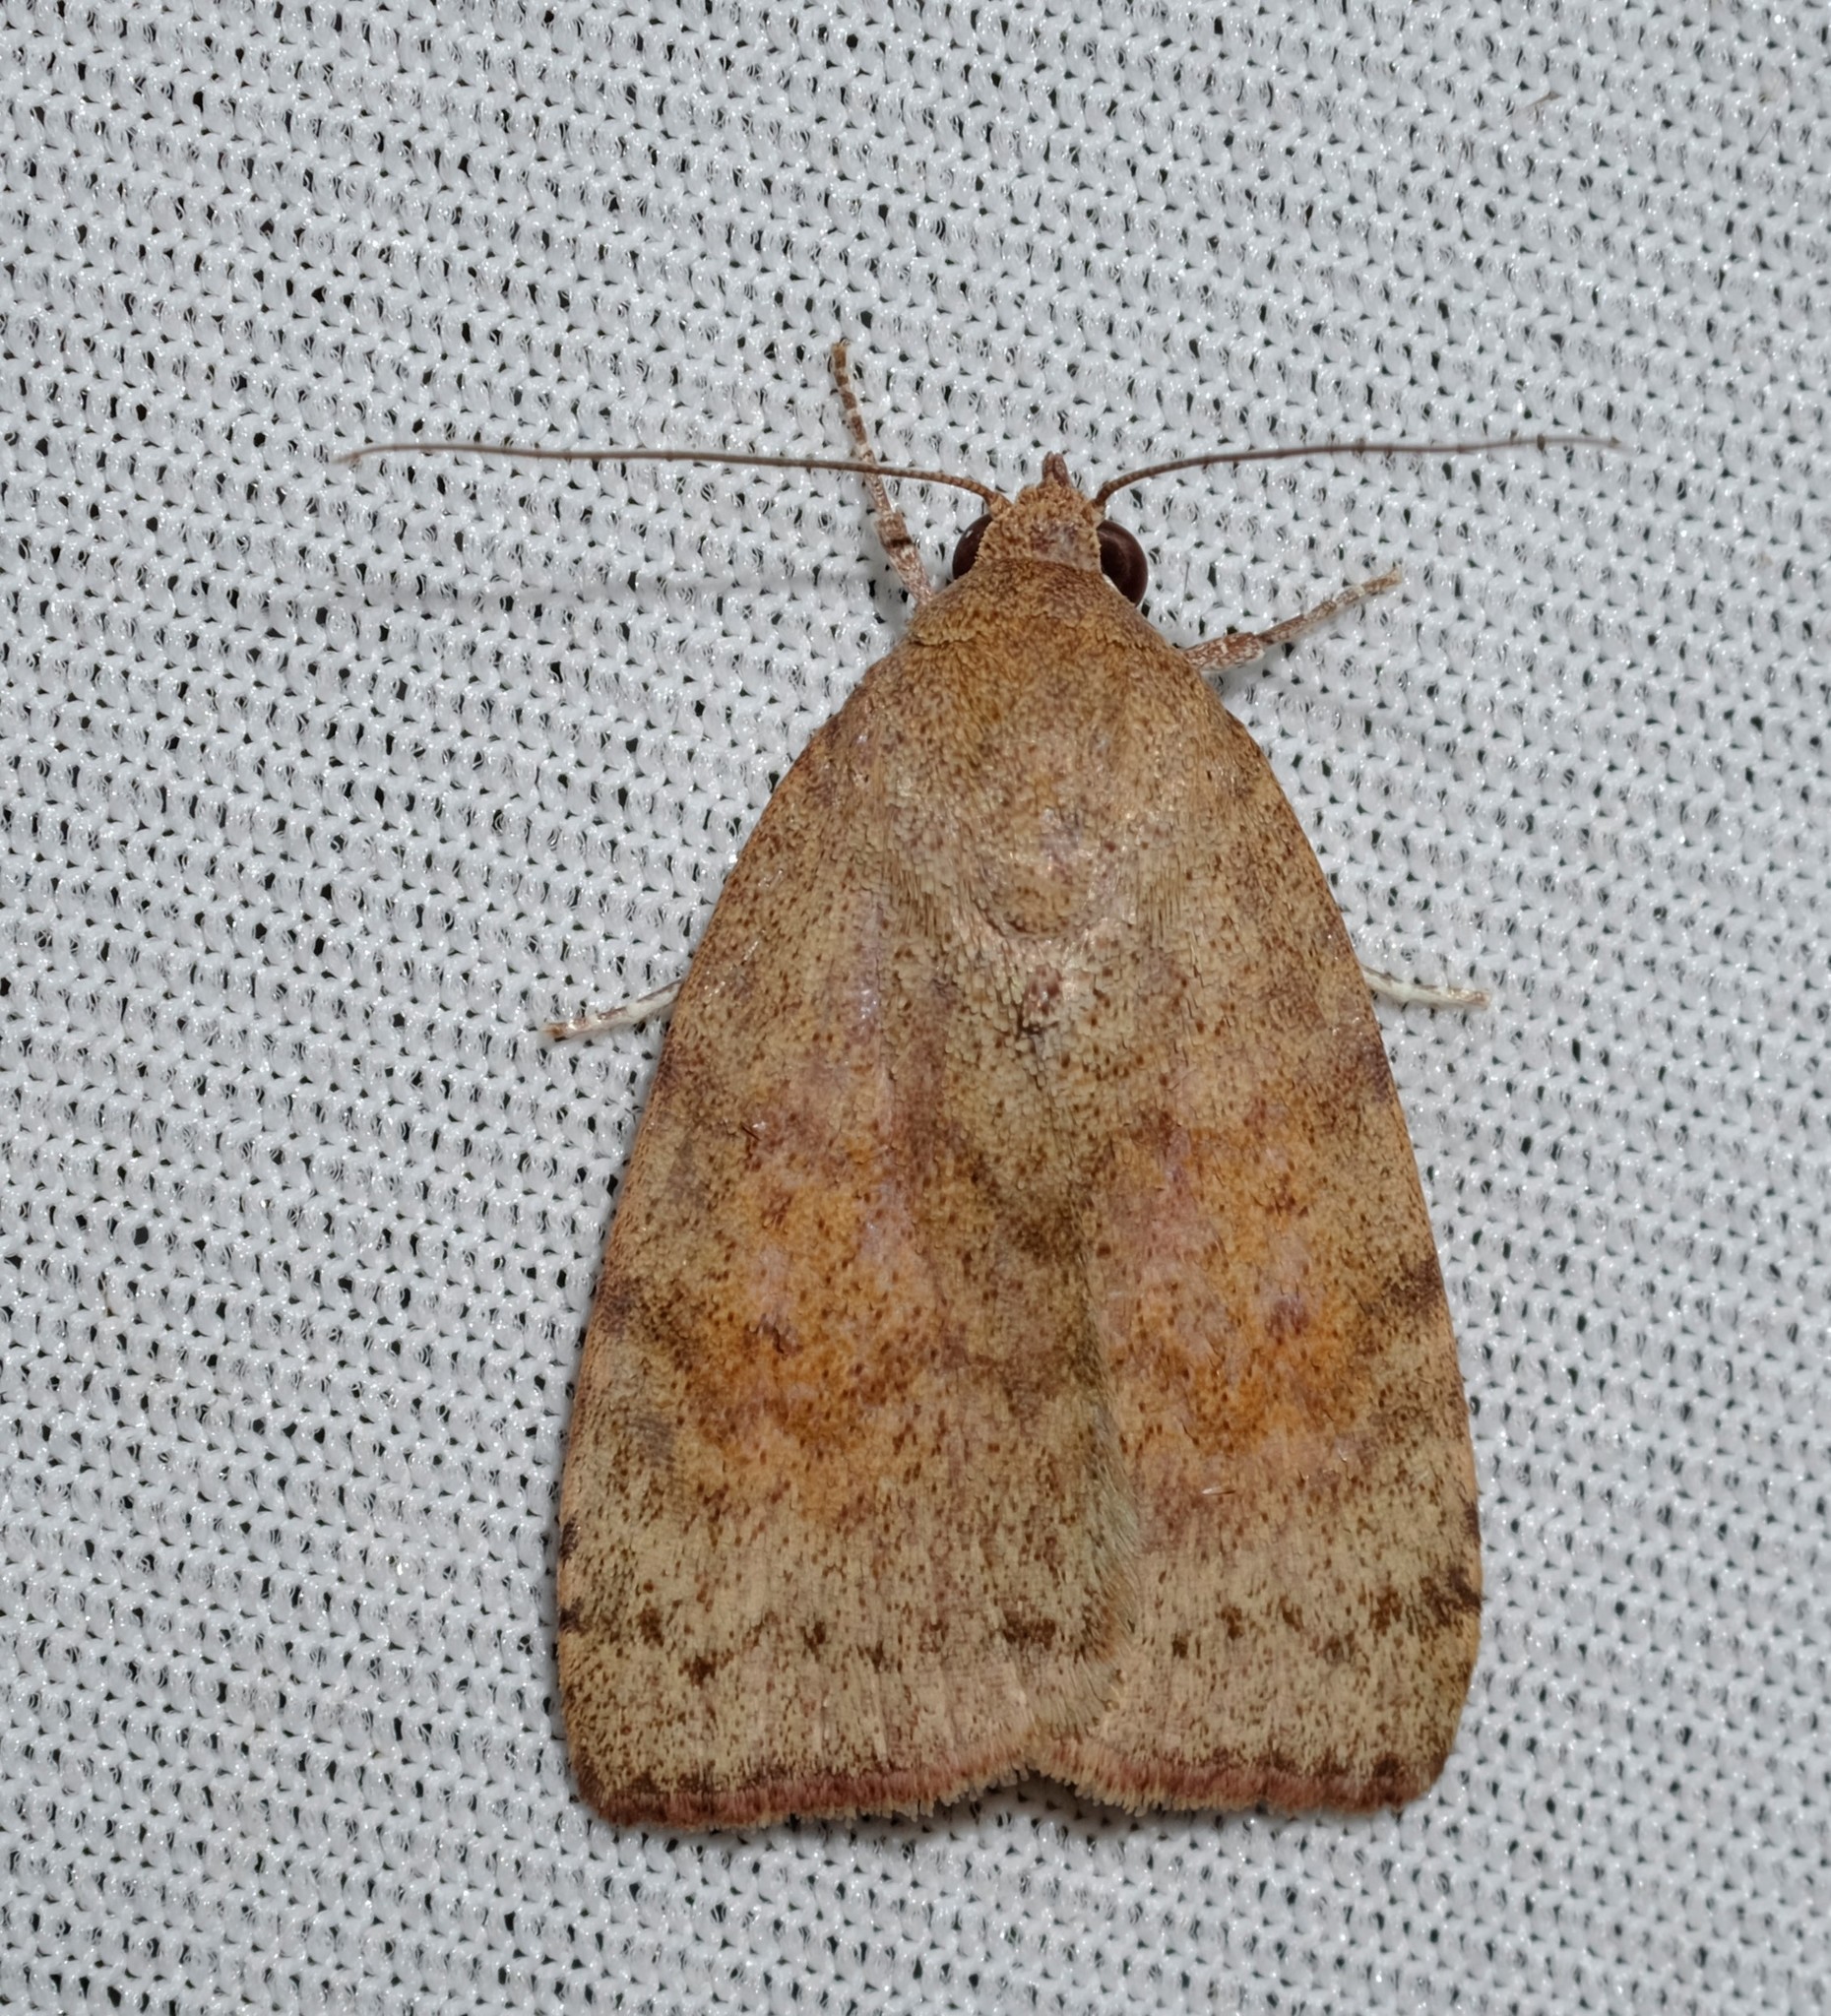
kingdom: Animalia
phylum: Arthropoda
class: Insecta
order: Lepidoptera
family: Nolidae
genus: Austrocarea
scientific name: Austrocarea iocephala
